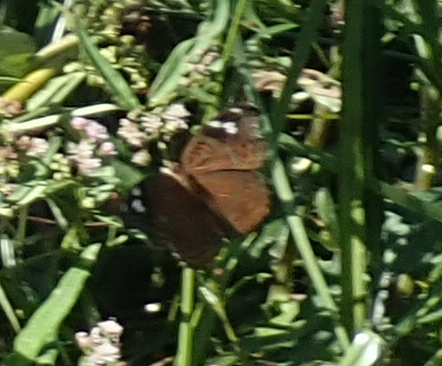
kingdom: Animalia
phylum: Arthropoda
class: Insecta
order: Lepidoptera
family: Nymphalidae
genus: Junonia
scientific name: Junonia natalica
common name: Brown pansy
